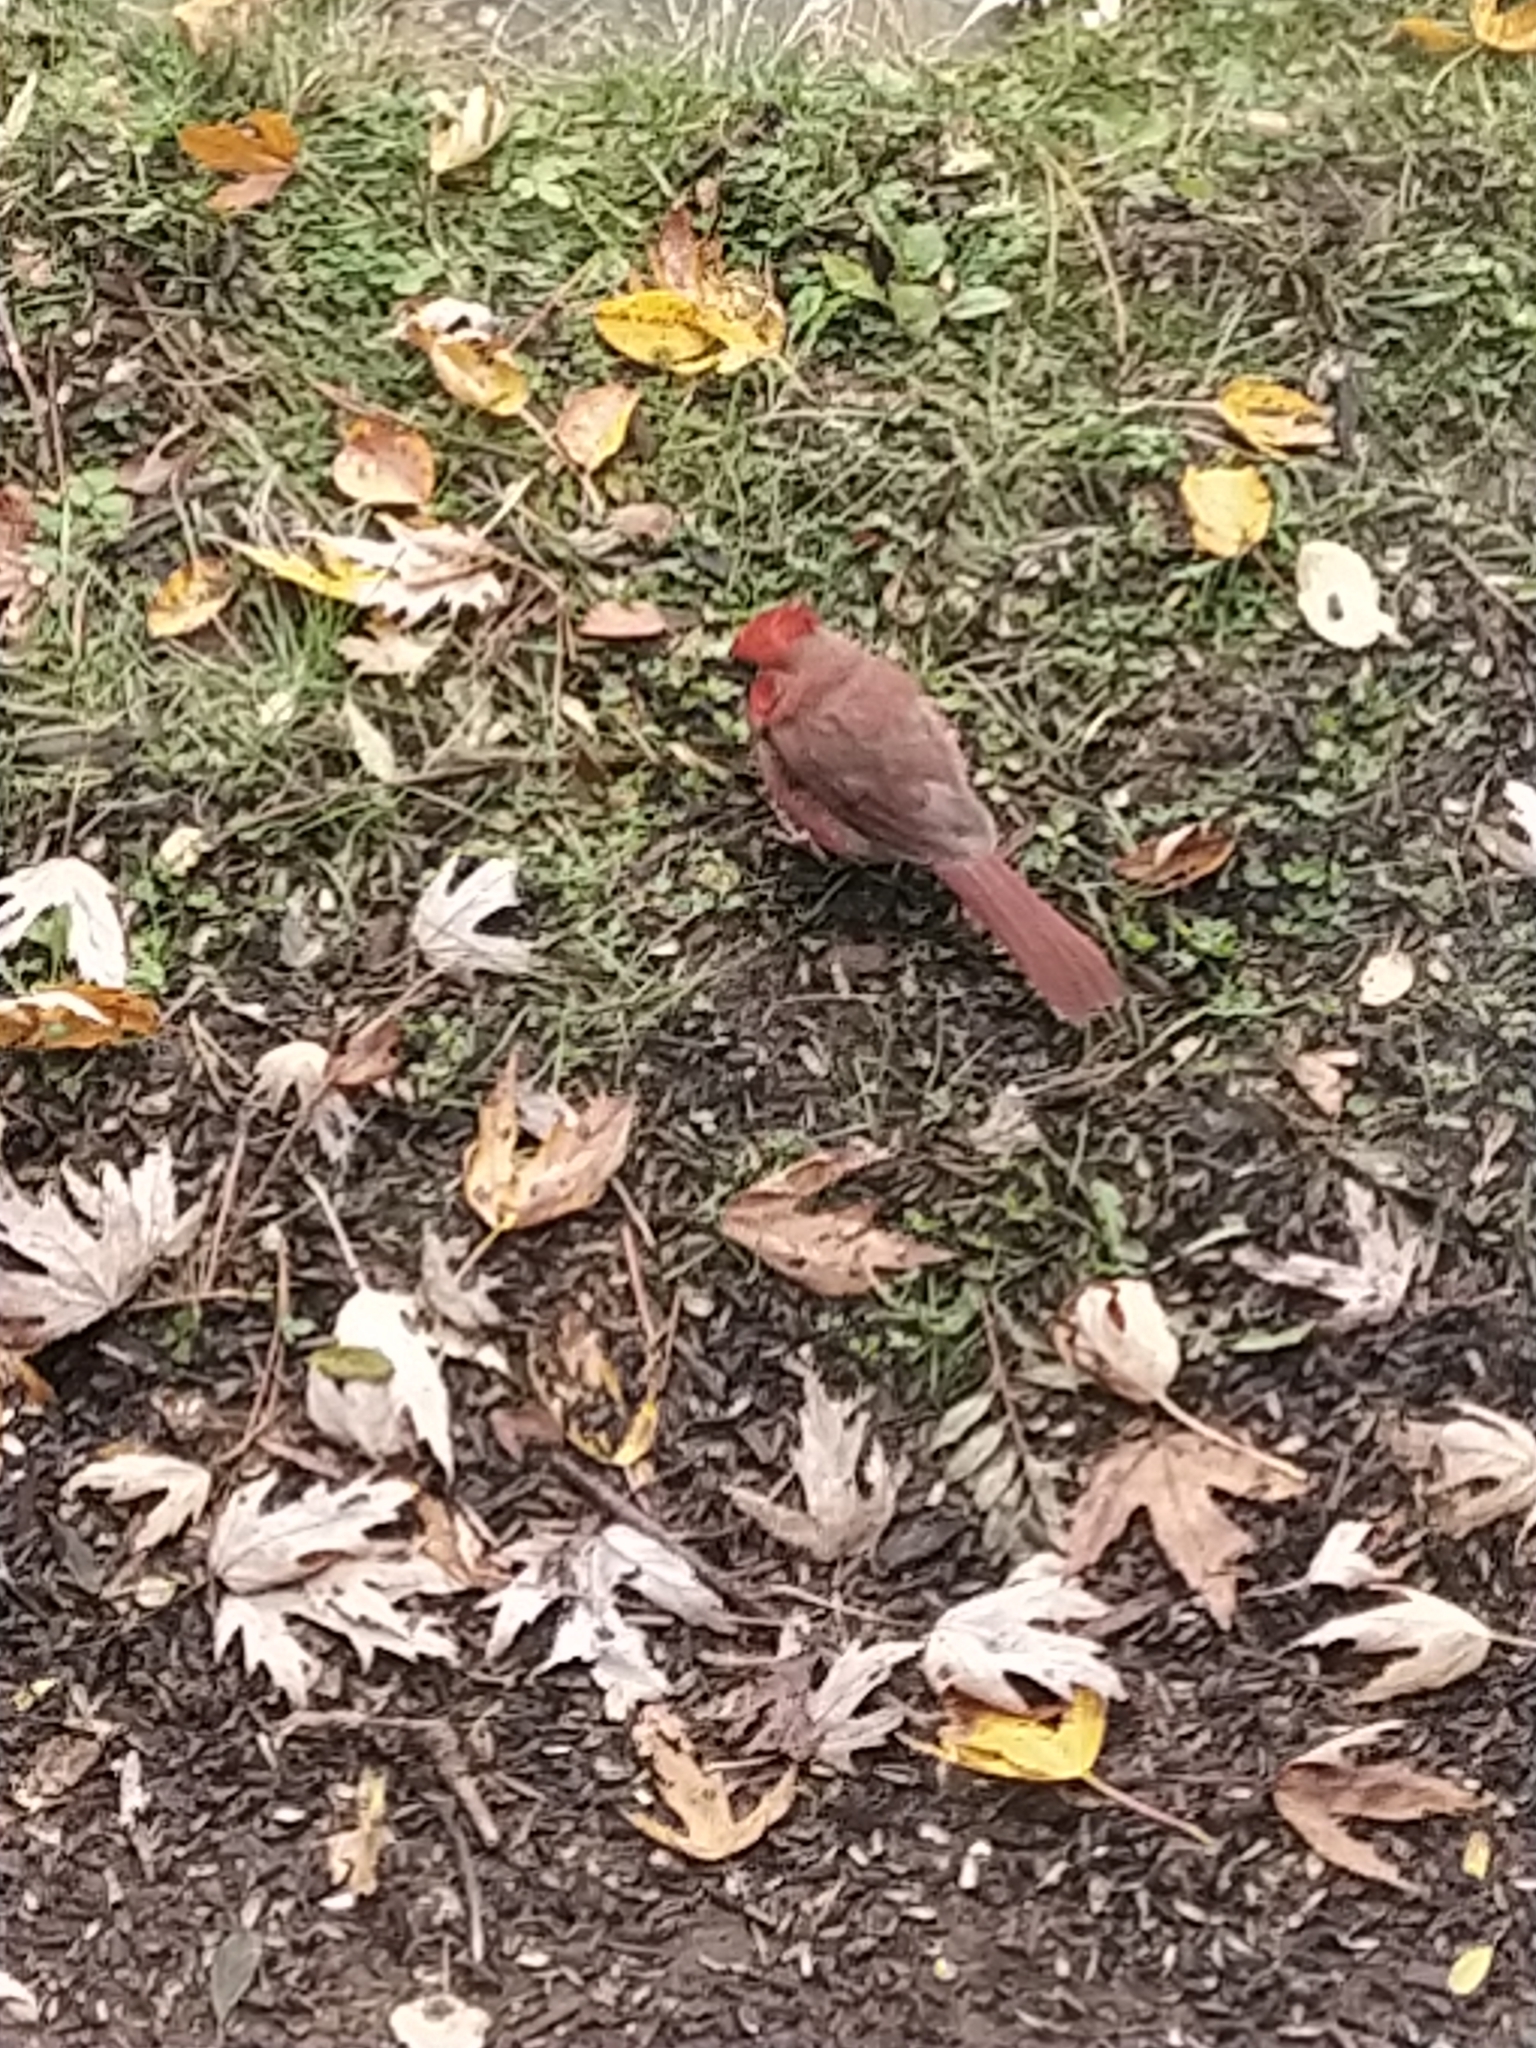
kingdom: Animalia
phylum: Chordata
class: Aves
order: Passeriformes
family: Cardinalidae
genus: Cardinalis
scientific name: Cardinalis cardinalis
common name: Northern cardinal
